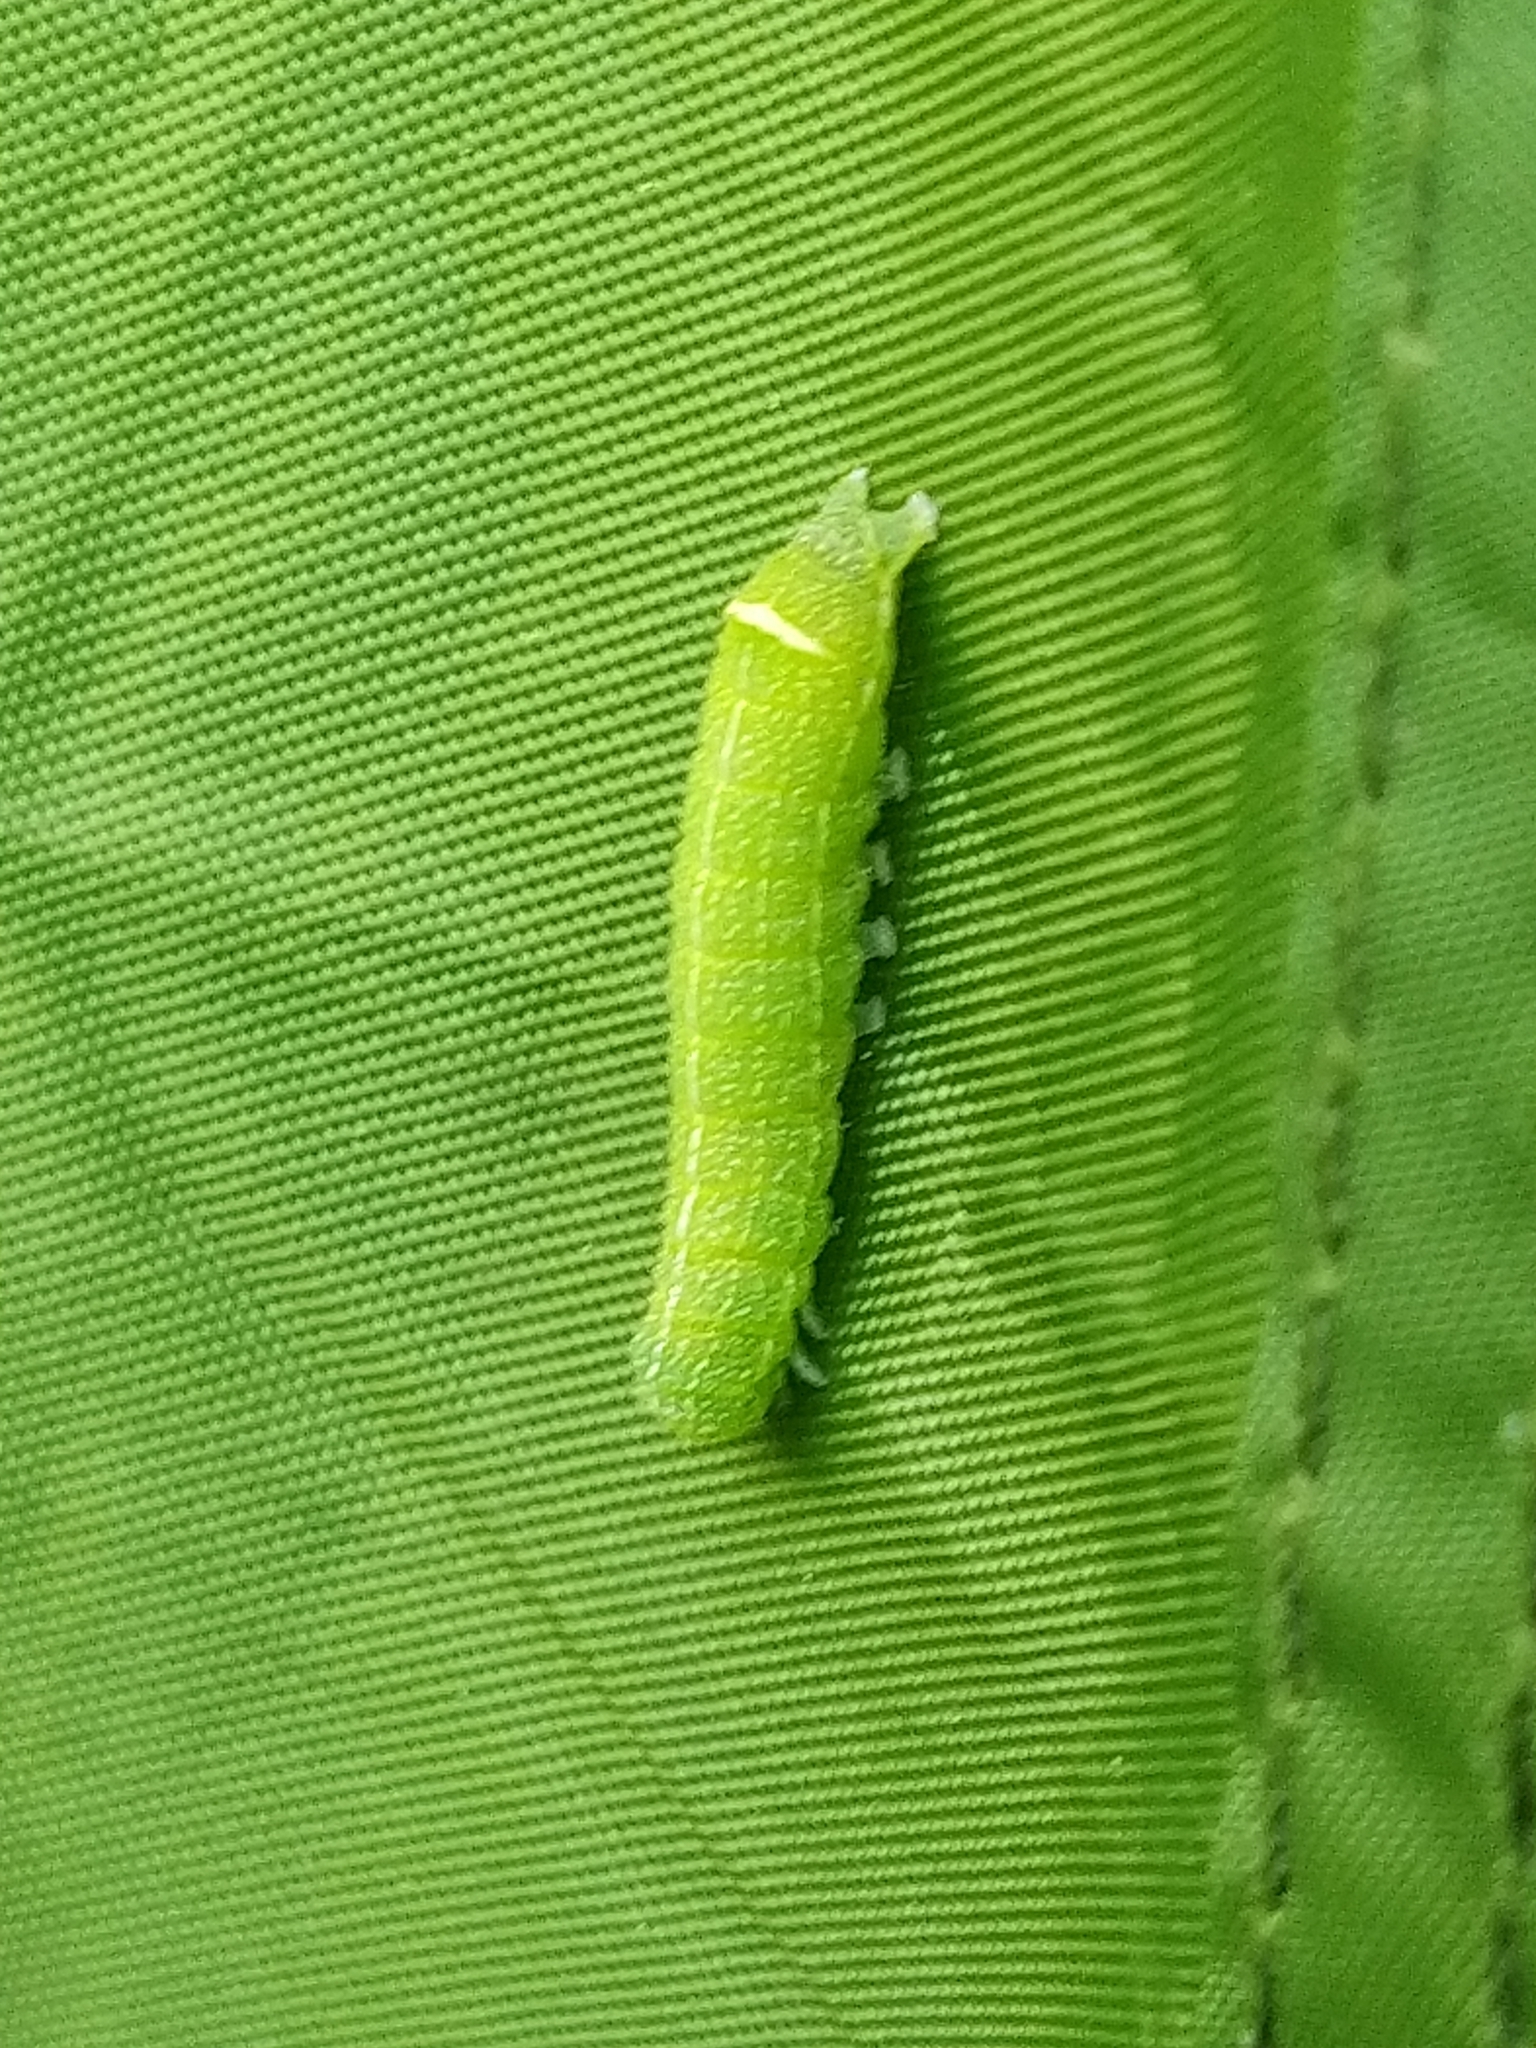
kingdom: Animalia
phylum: Arthropoda
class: Insecta
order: Lepidoptera
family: Noctuidae
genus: Orthosia
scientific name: Orthosia cerasi
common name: Common quaker
